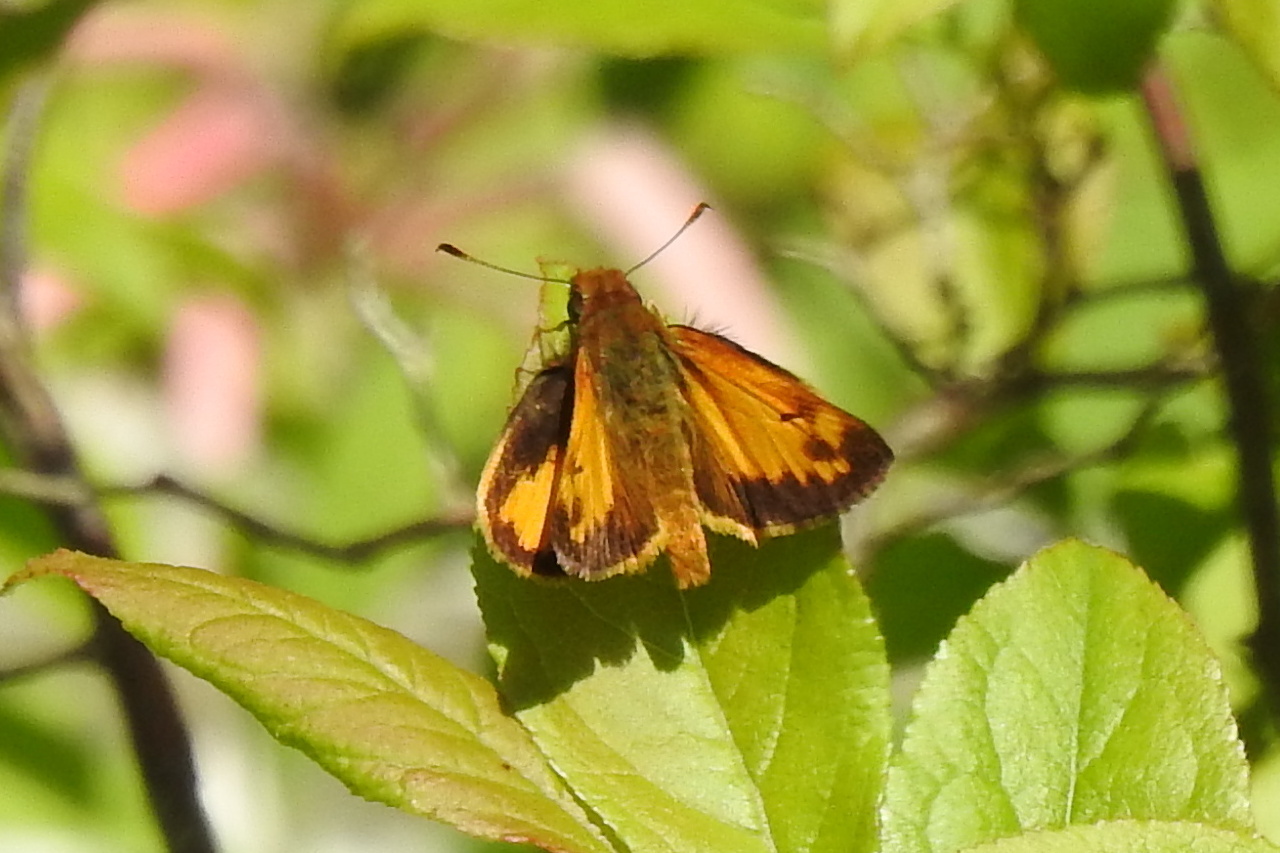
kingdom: Animalia
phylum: Arthropoda
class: Insecta
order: Lepidoptera
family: Hesperiidae
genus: Lon
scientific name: Lon zabulon
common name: Zabulon skipper
